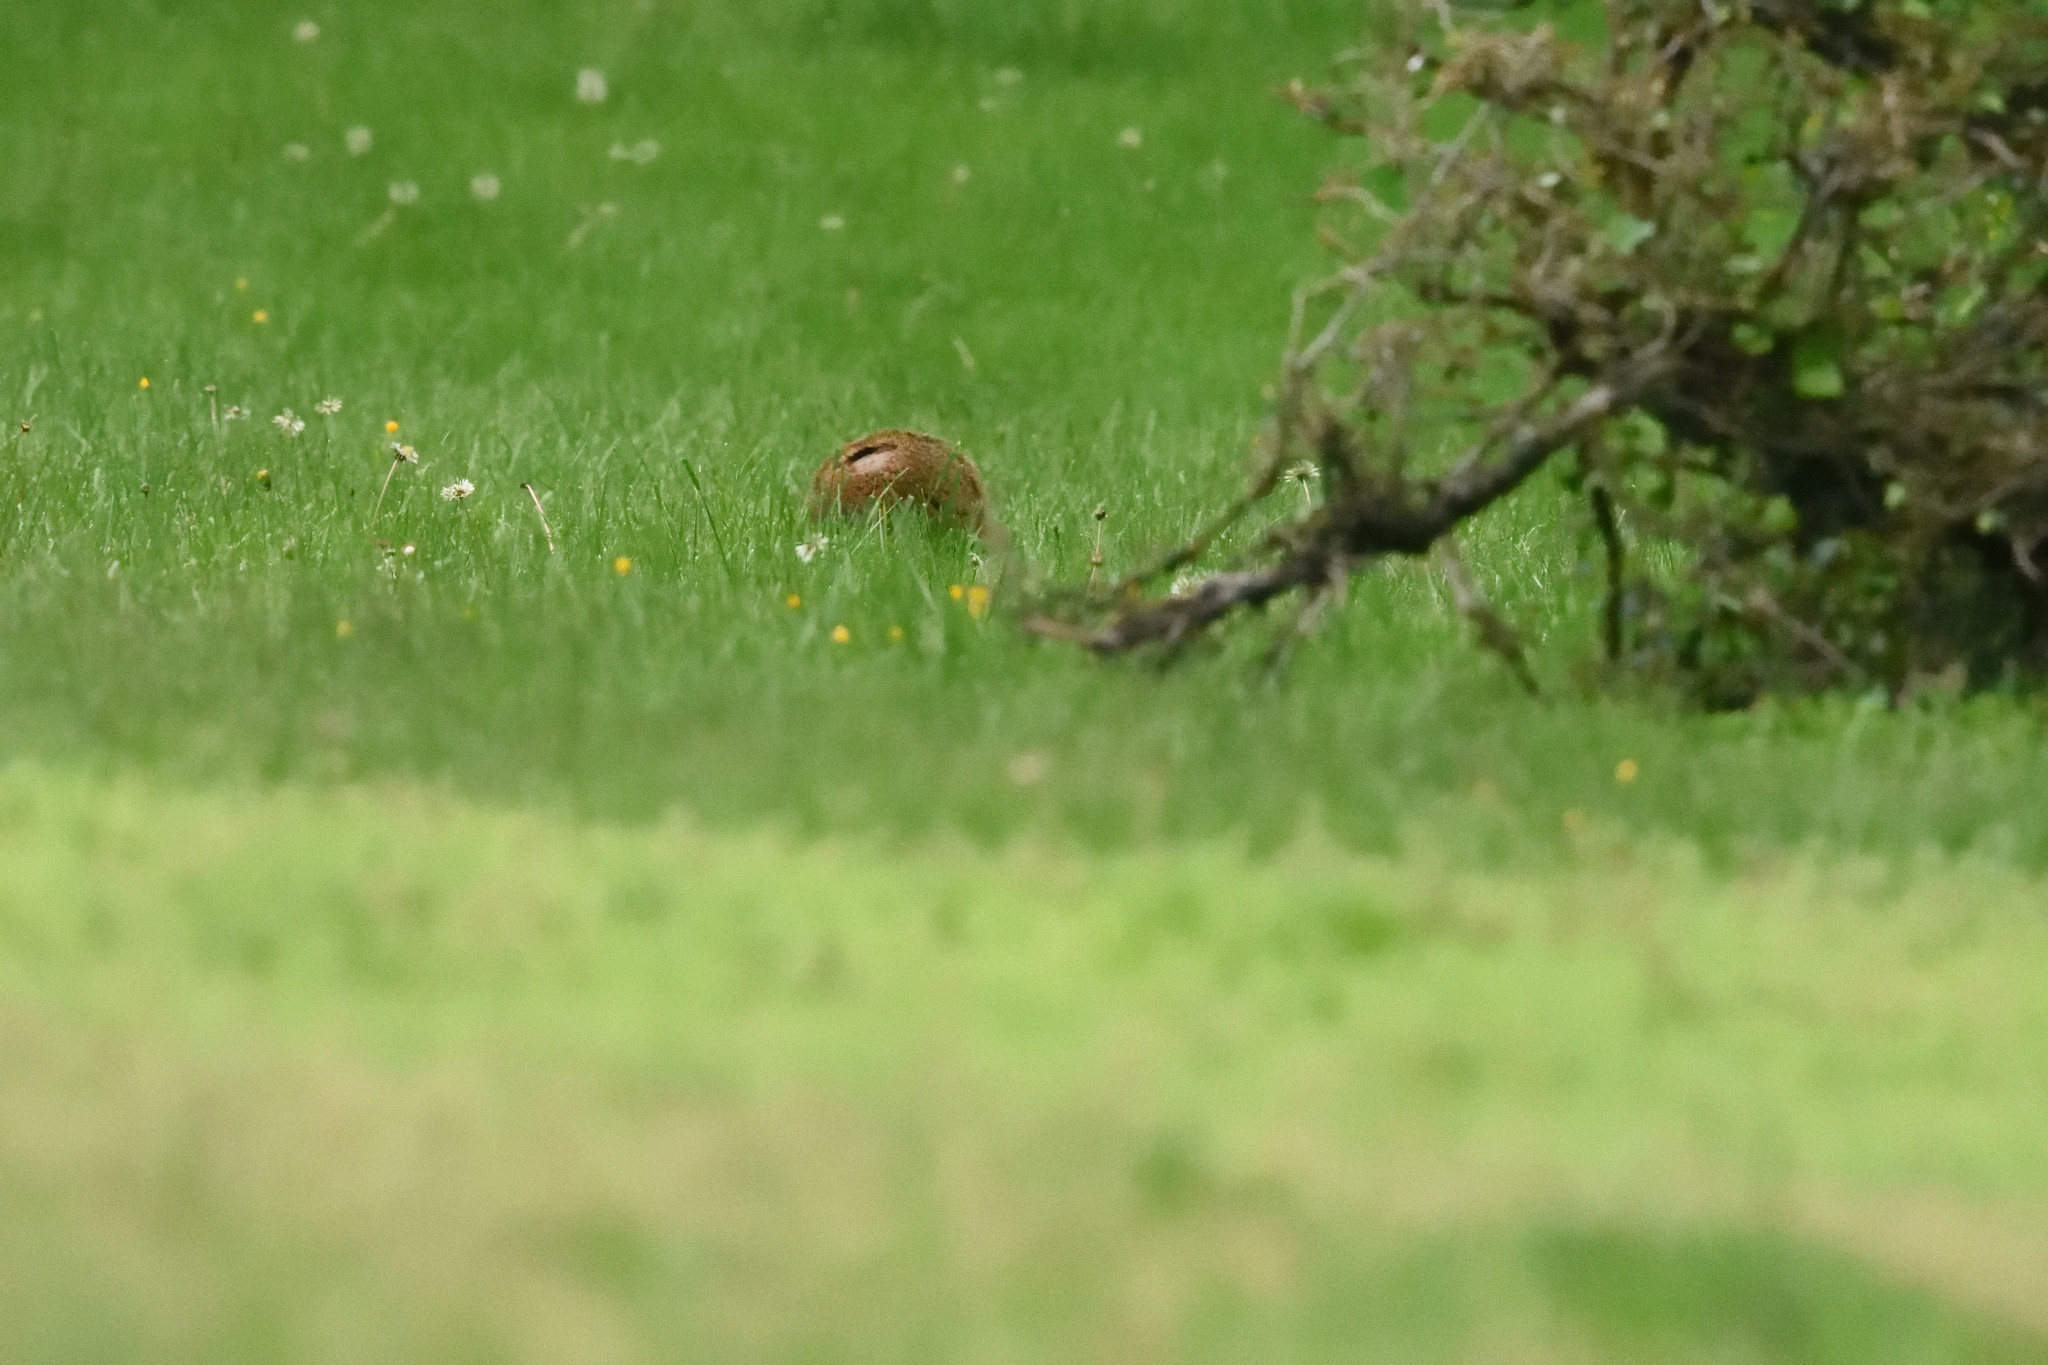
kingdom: Animalia
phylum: Chordata
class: Mammalia
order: Rodentia
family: Sciuridae
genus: Marmota
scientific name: Marmota monax
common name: Groundhog
